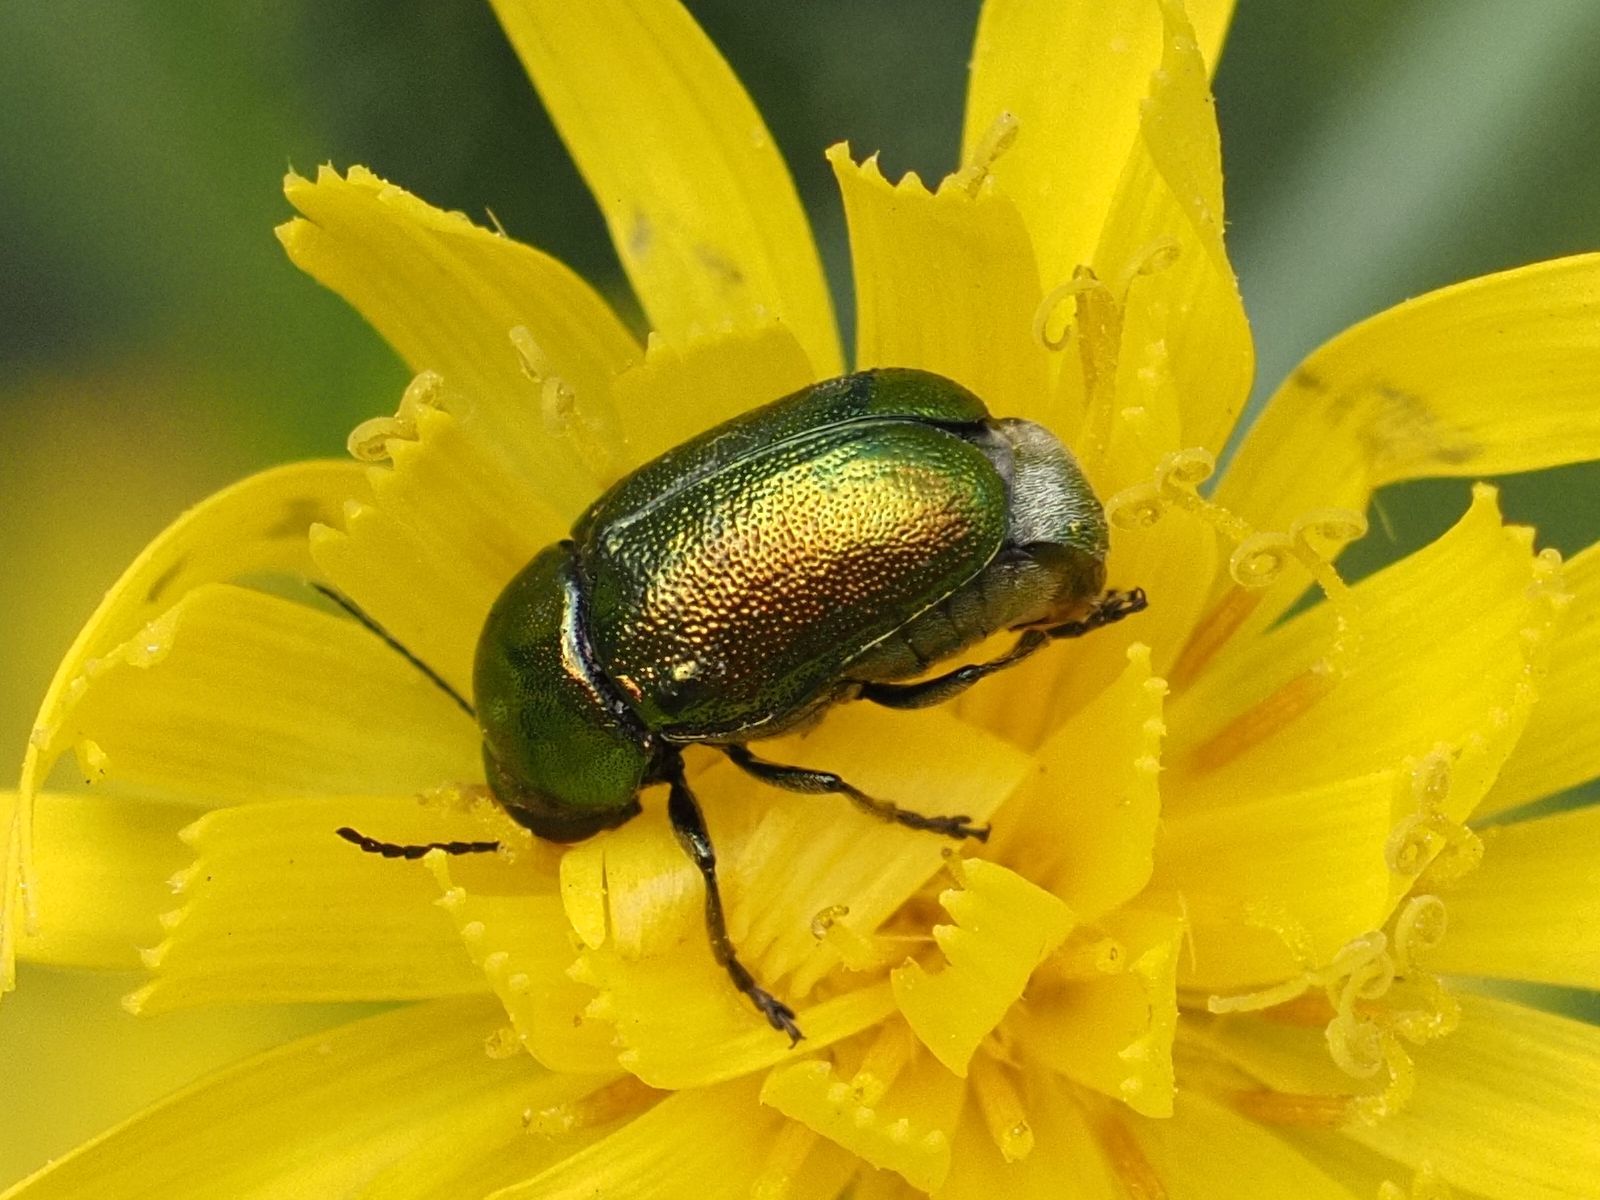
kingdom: Animalia
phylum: Arthropoda
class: Insecta
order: Coleoptera
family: Chrysomelidae
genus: Cryptocephalus
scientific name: Cryptocephalus
